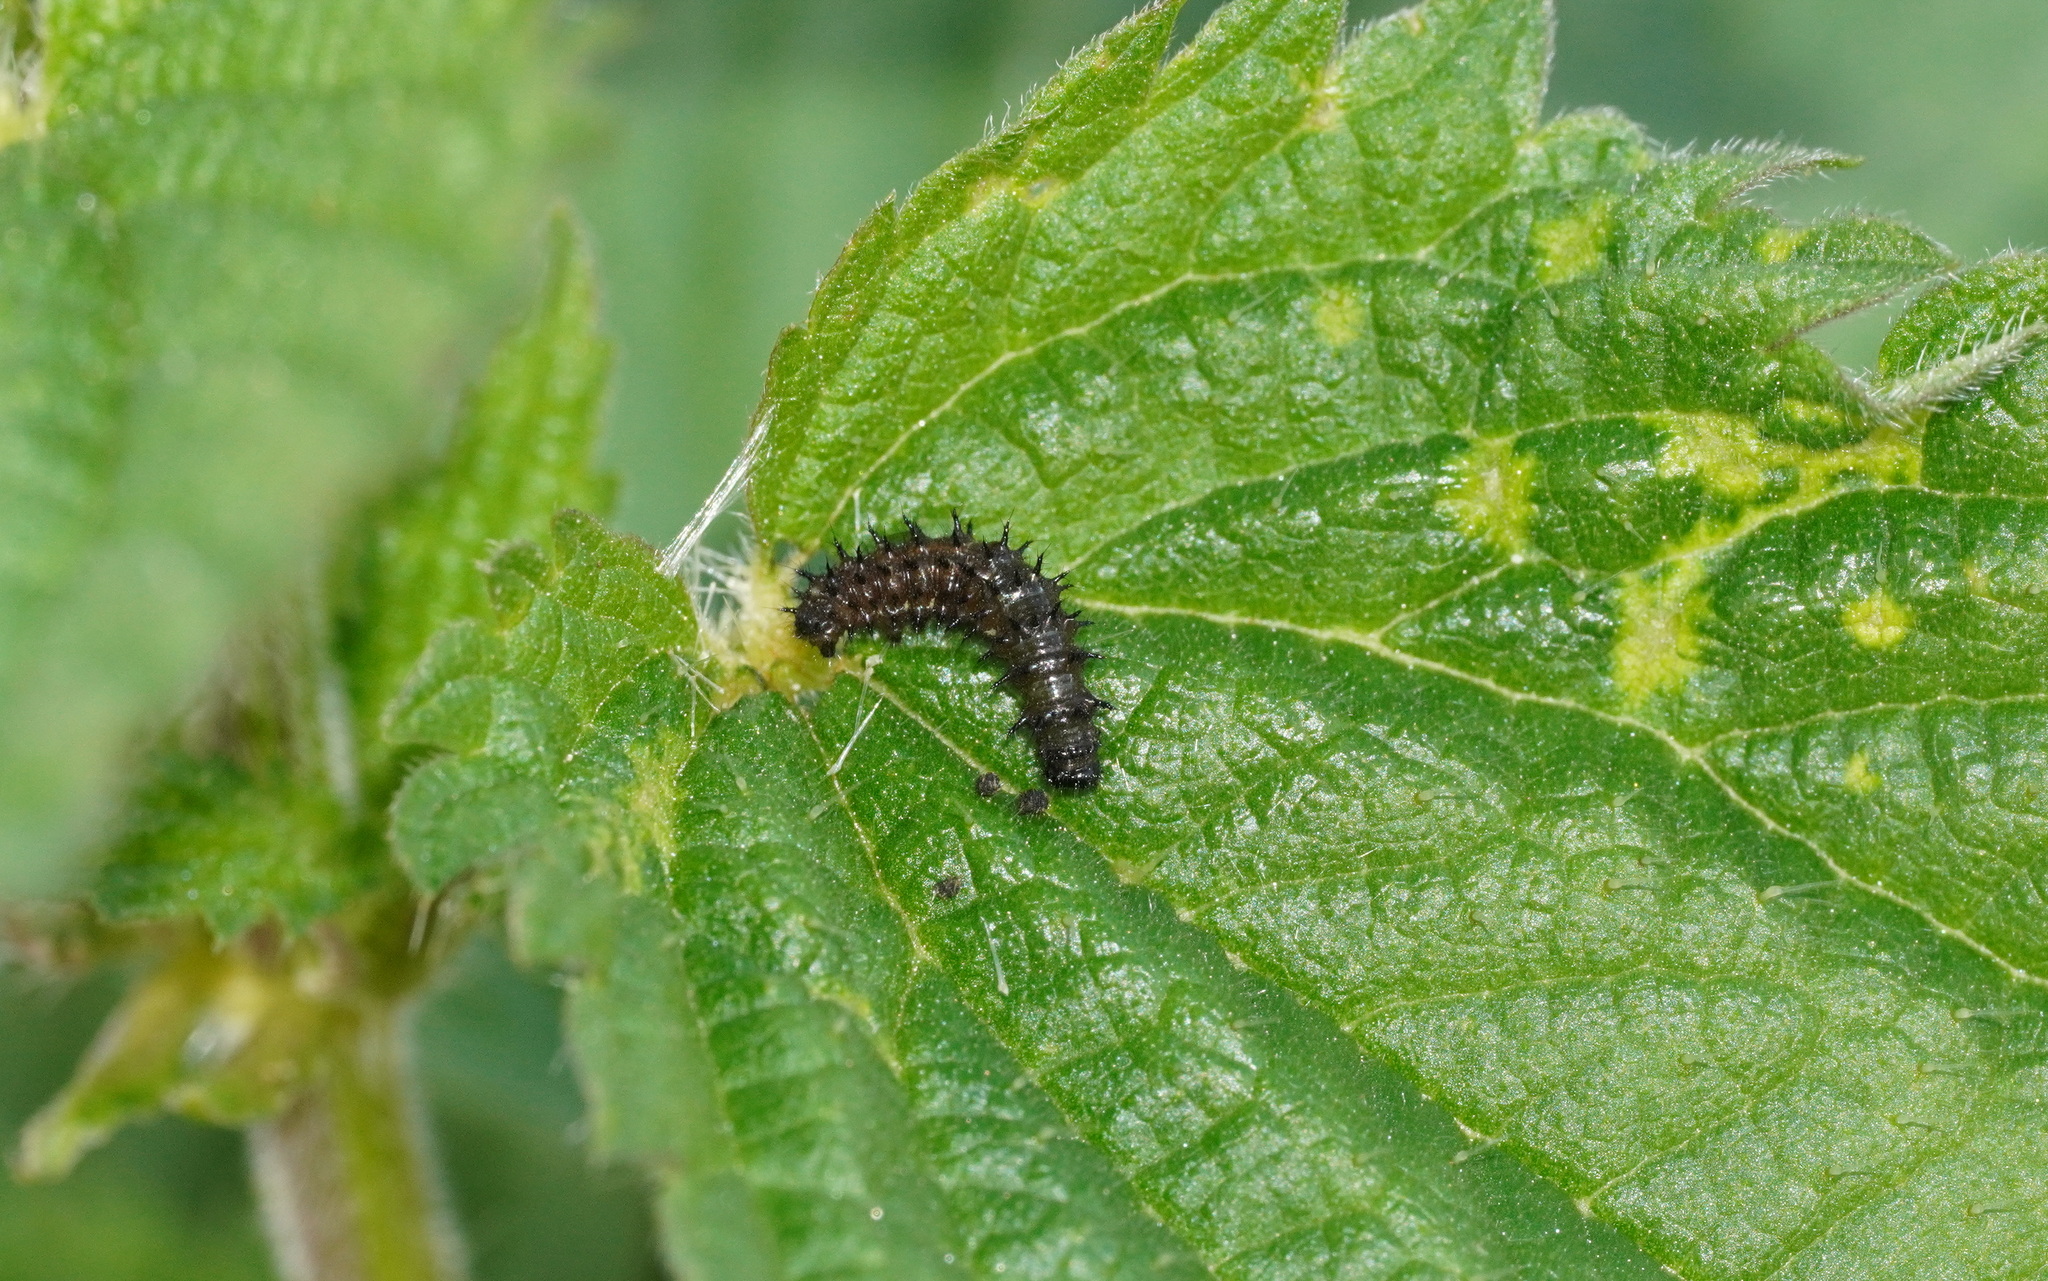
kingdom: Animalia
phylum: Arthropoda
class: Insecta
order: Lepidoptera
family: Nymphalidae
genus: Vanessa
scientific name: Vanessa atalanta
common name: Red admiral
